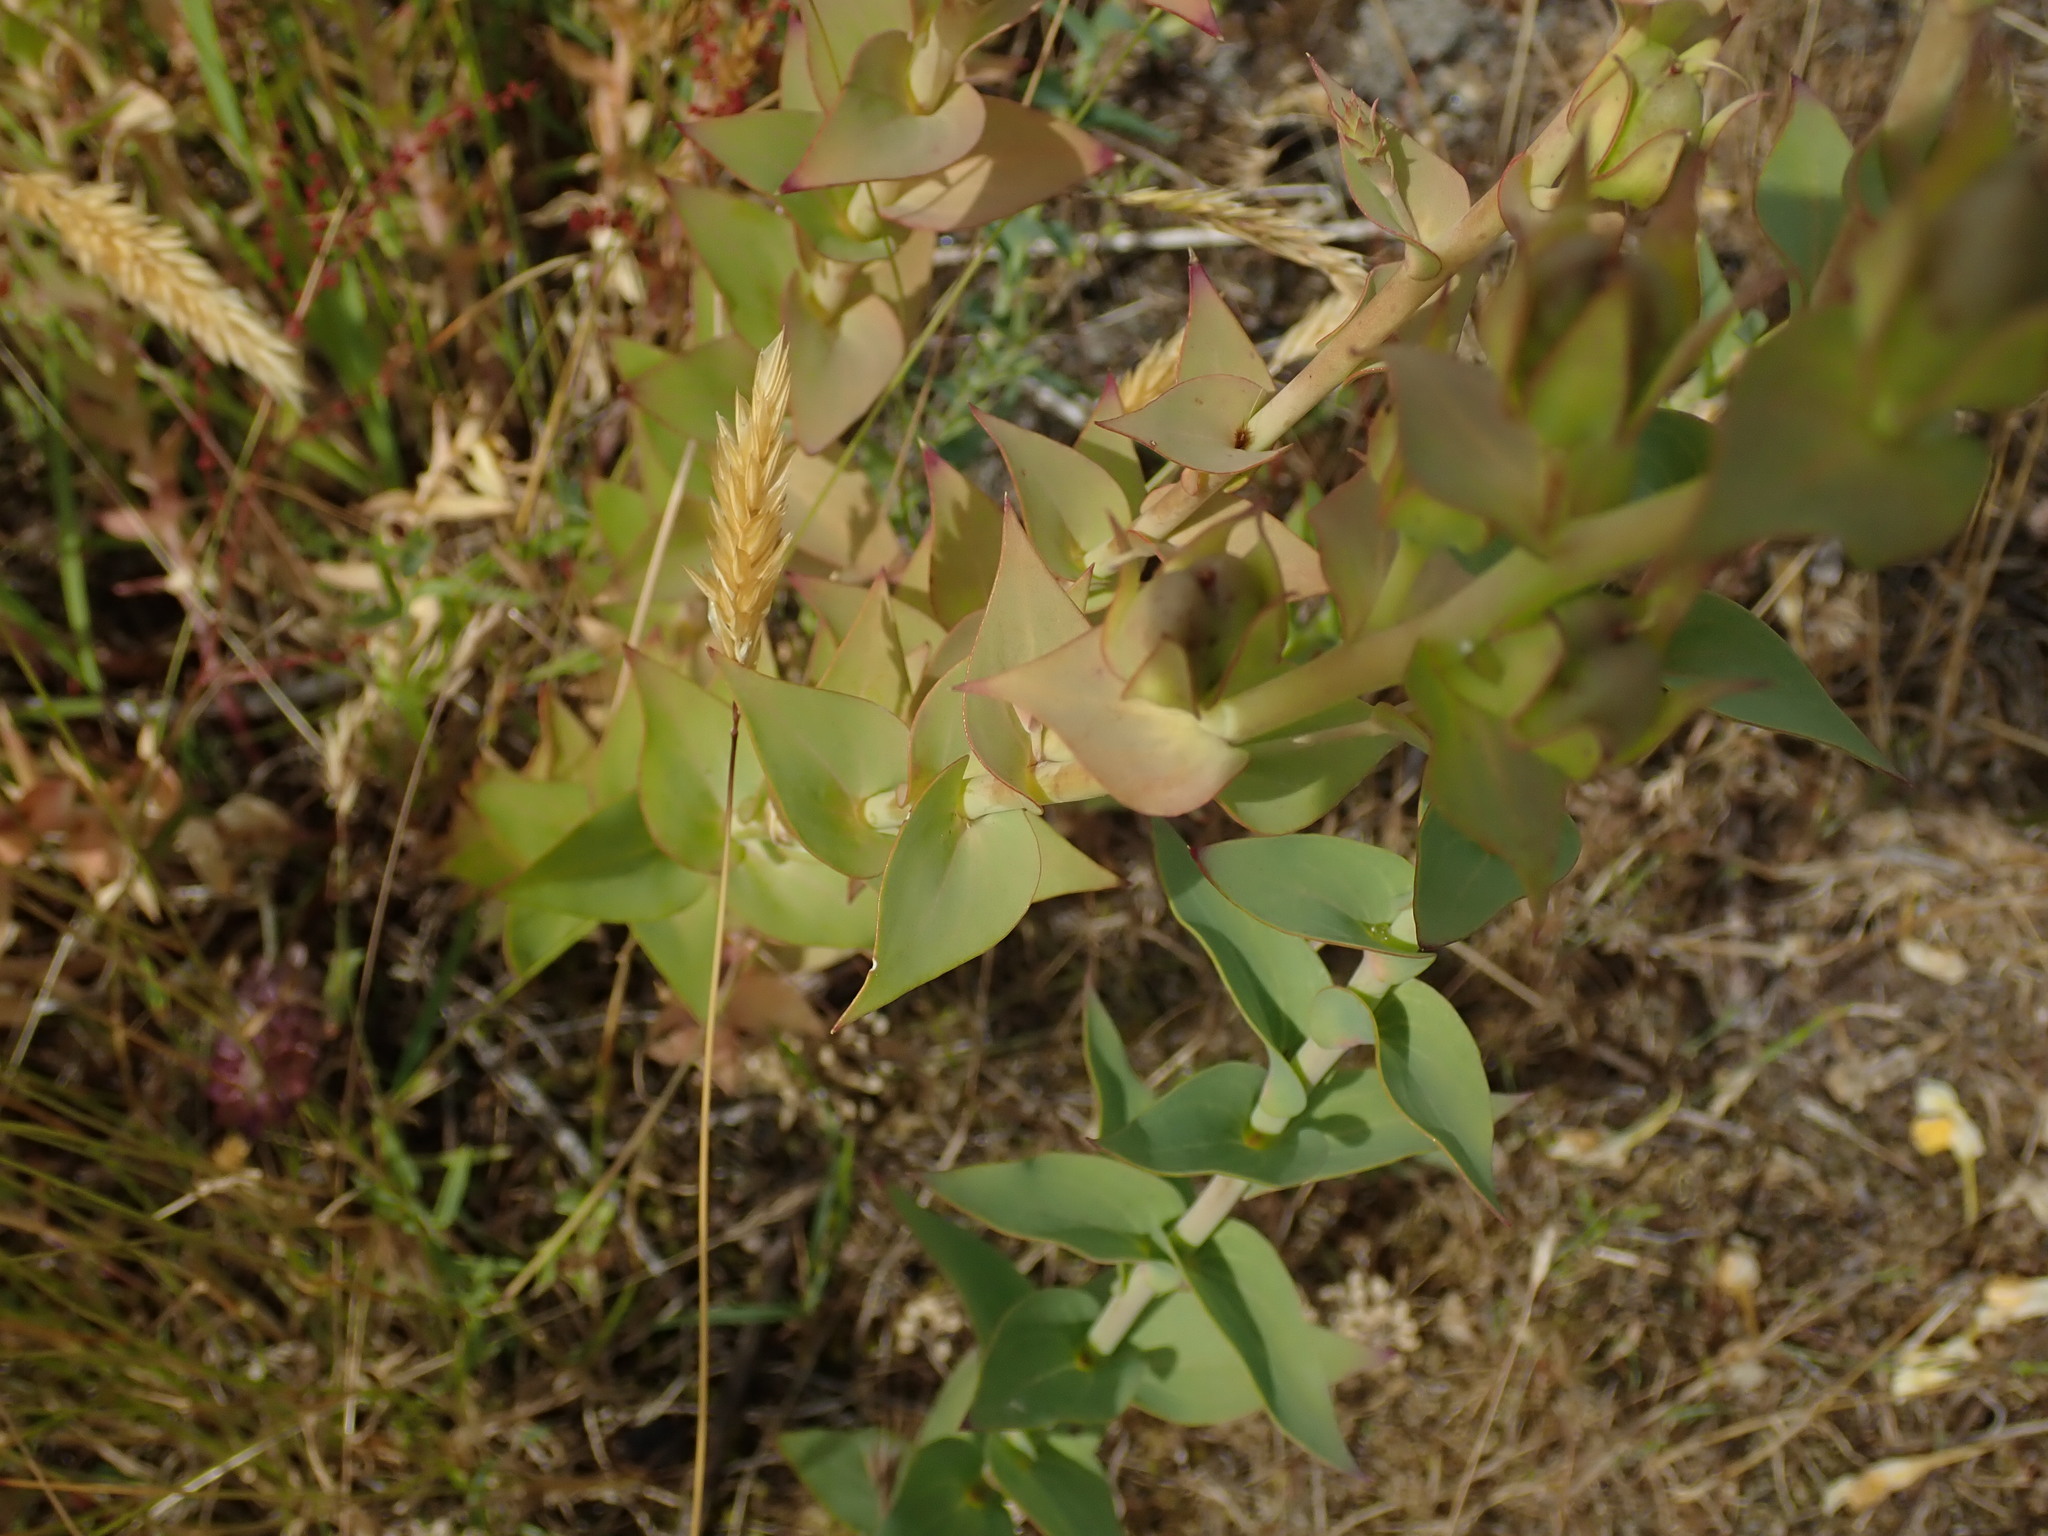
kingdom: Plantae
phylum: Tracheophyta
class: Magnoliopsida
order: Lamiales
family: Plantaginaceae
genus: Linaria
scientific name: Linaria dalmatica
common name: Dalmatian toadflax
